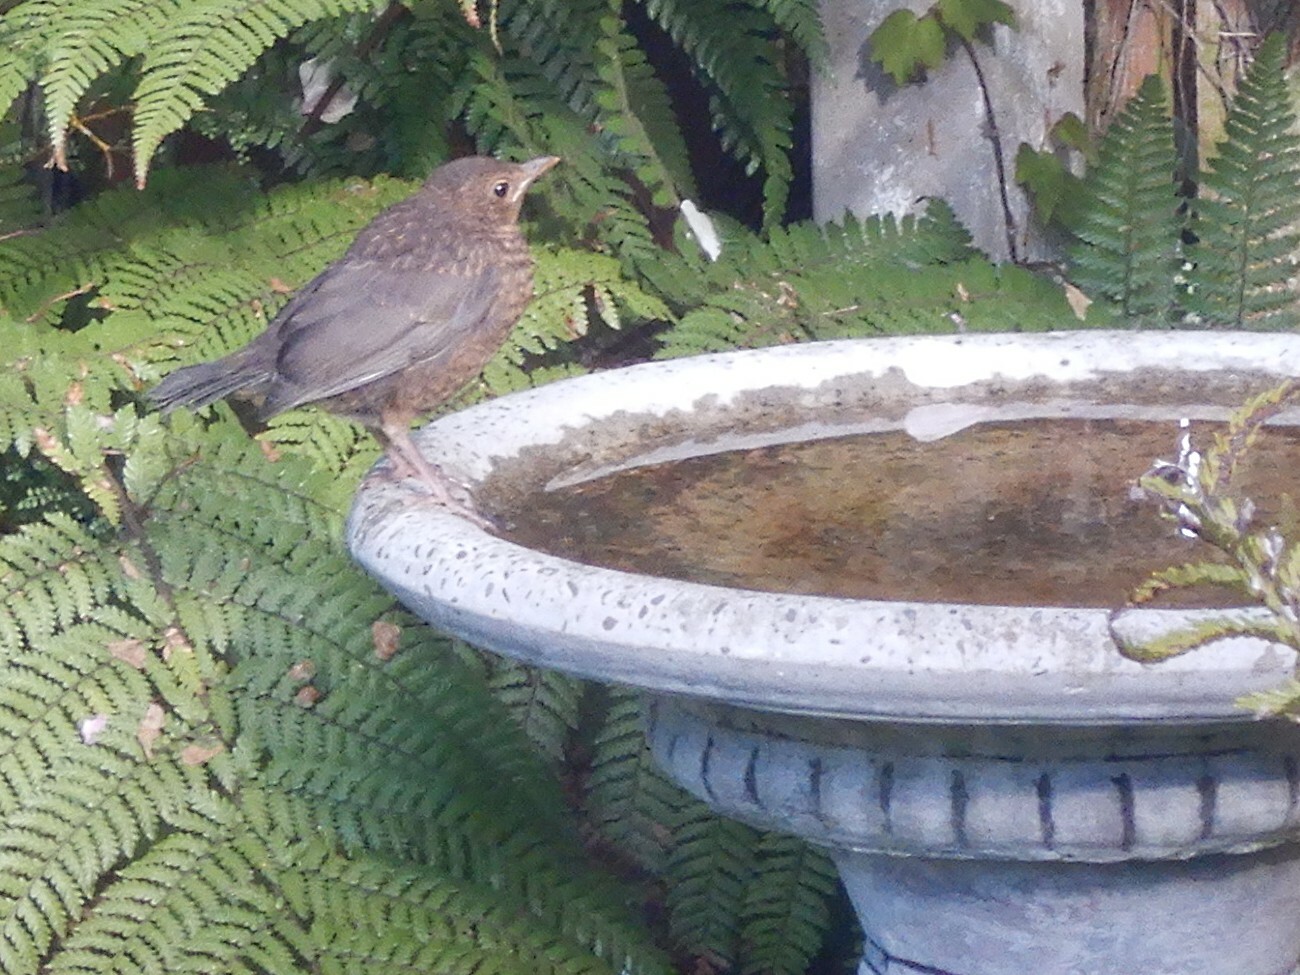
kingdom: Animalia
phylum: Chordata
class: Aves
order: Passeriformes
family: Turdidae
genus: Turdus
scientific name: Turdus merula
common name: Common blackbird
